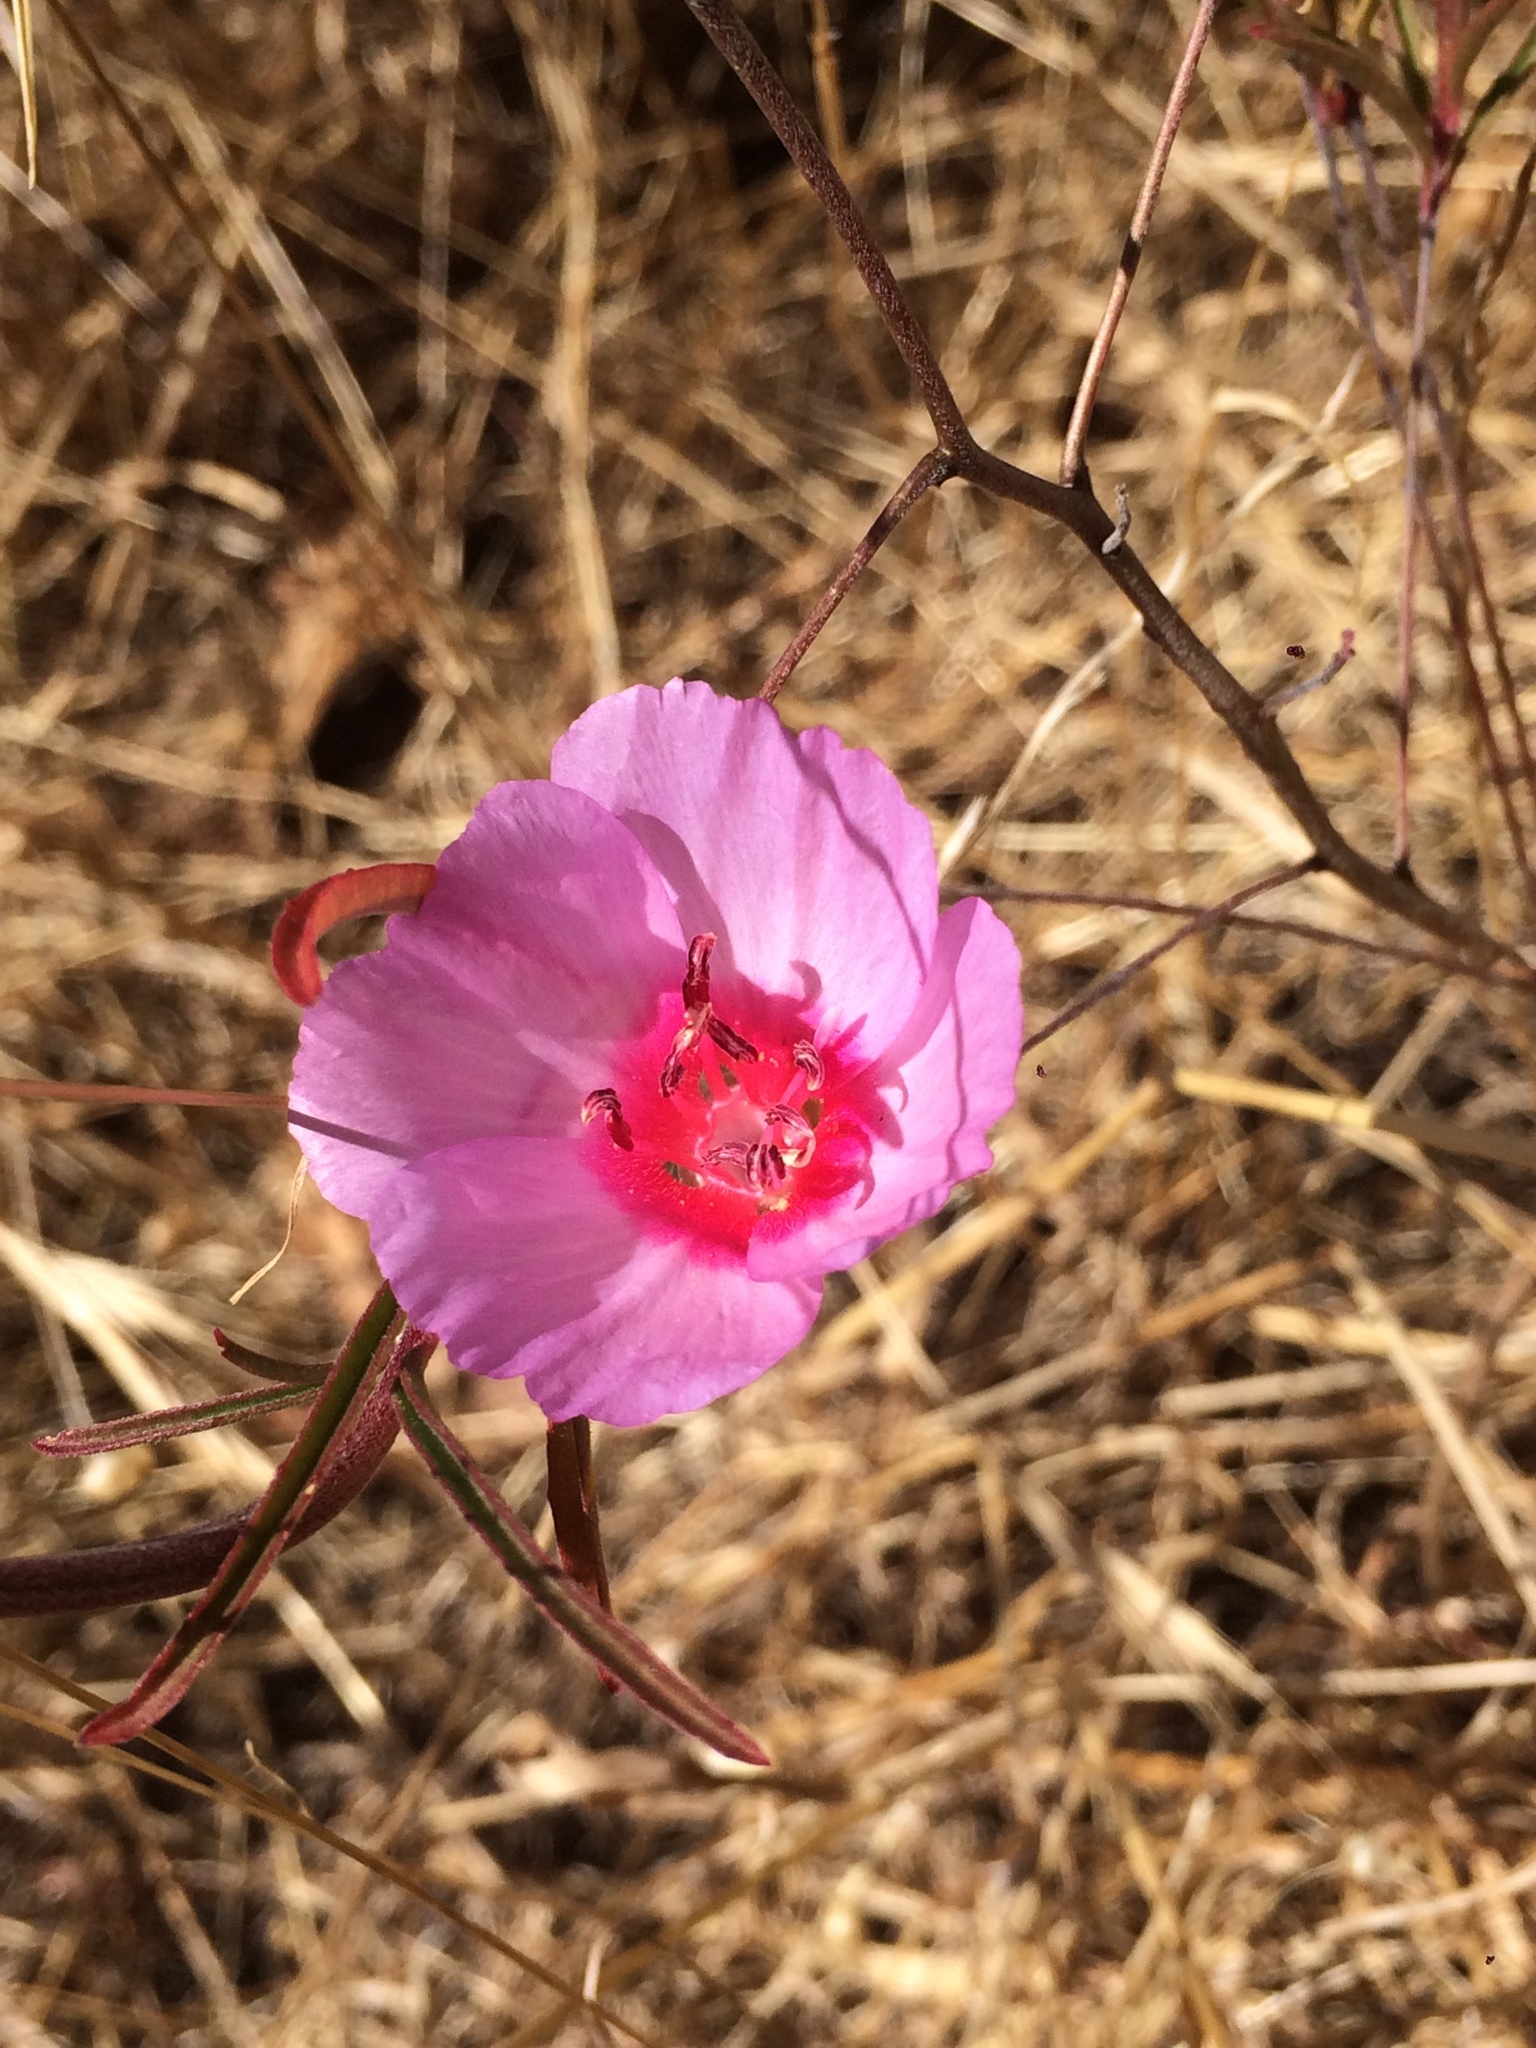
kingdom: Plantae
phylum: Tracheophyta
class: Magnoliopsida
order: Myrtales
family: Onagraceae
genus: Clarkia
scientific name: Clarkia rubicunda
